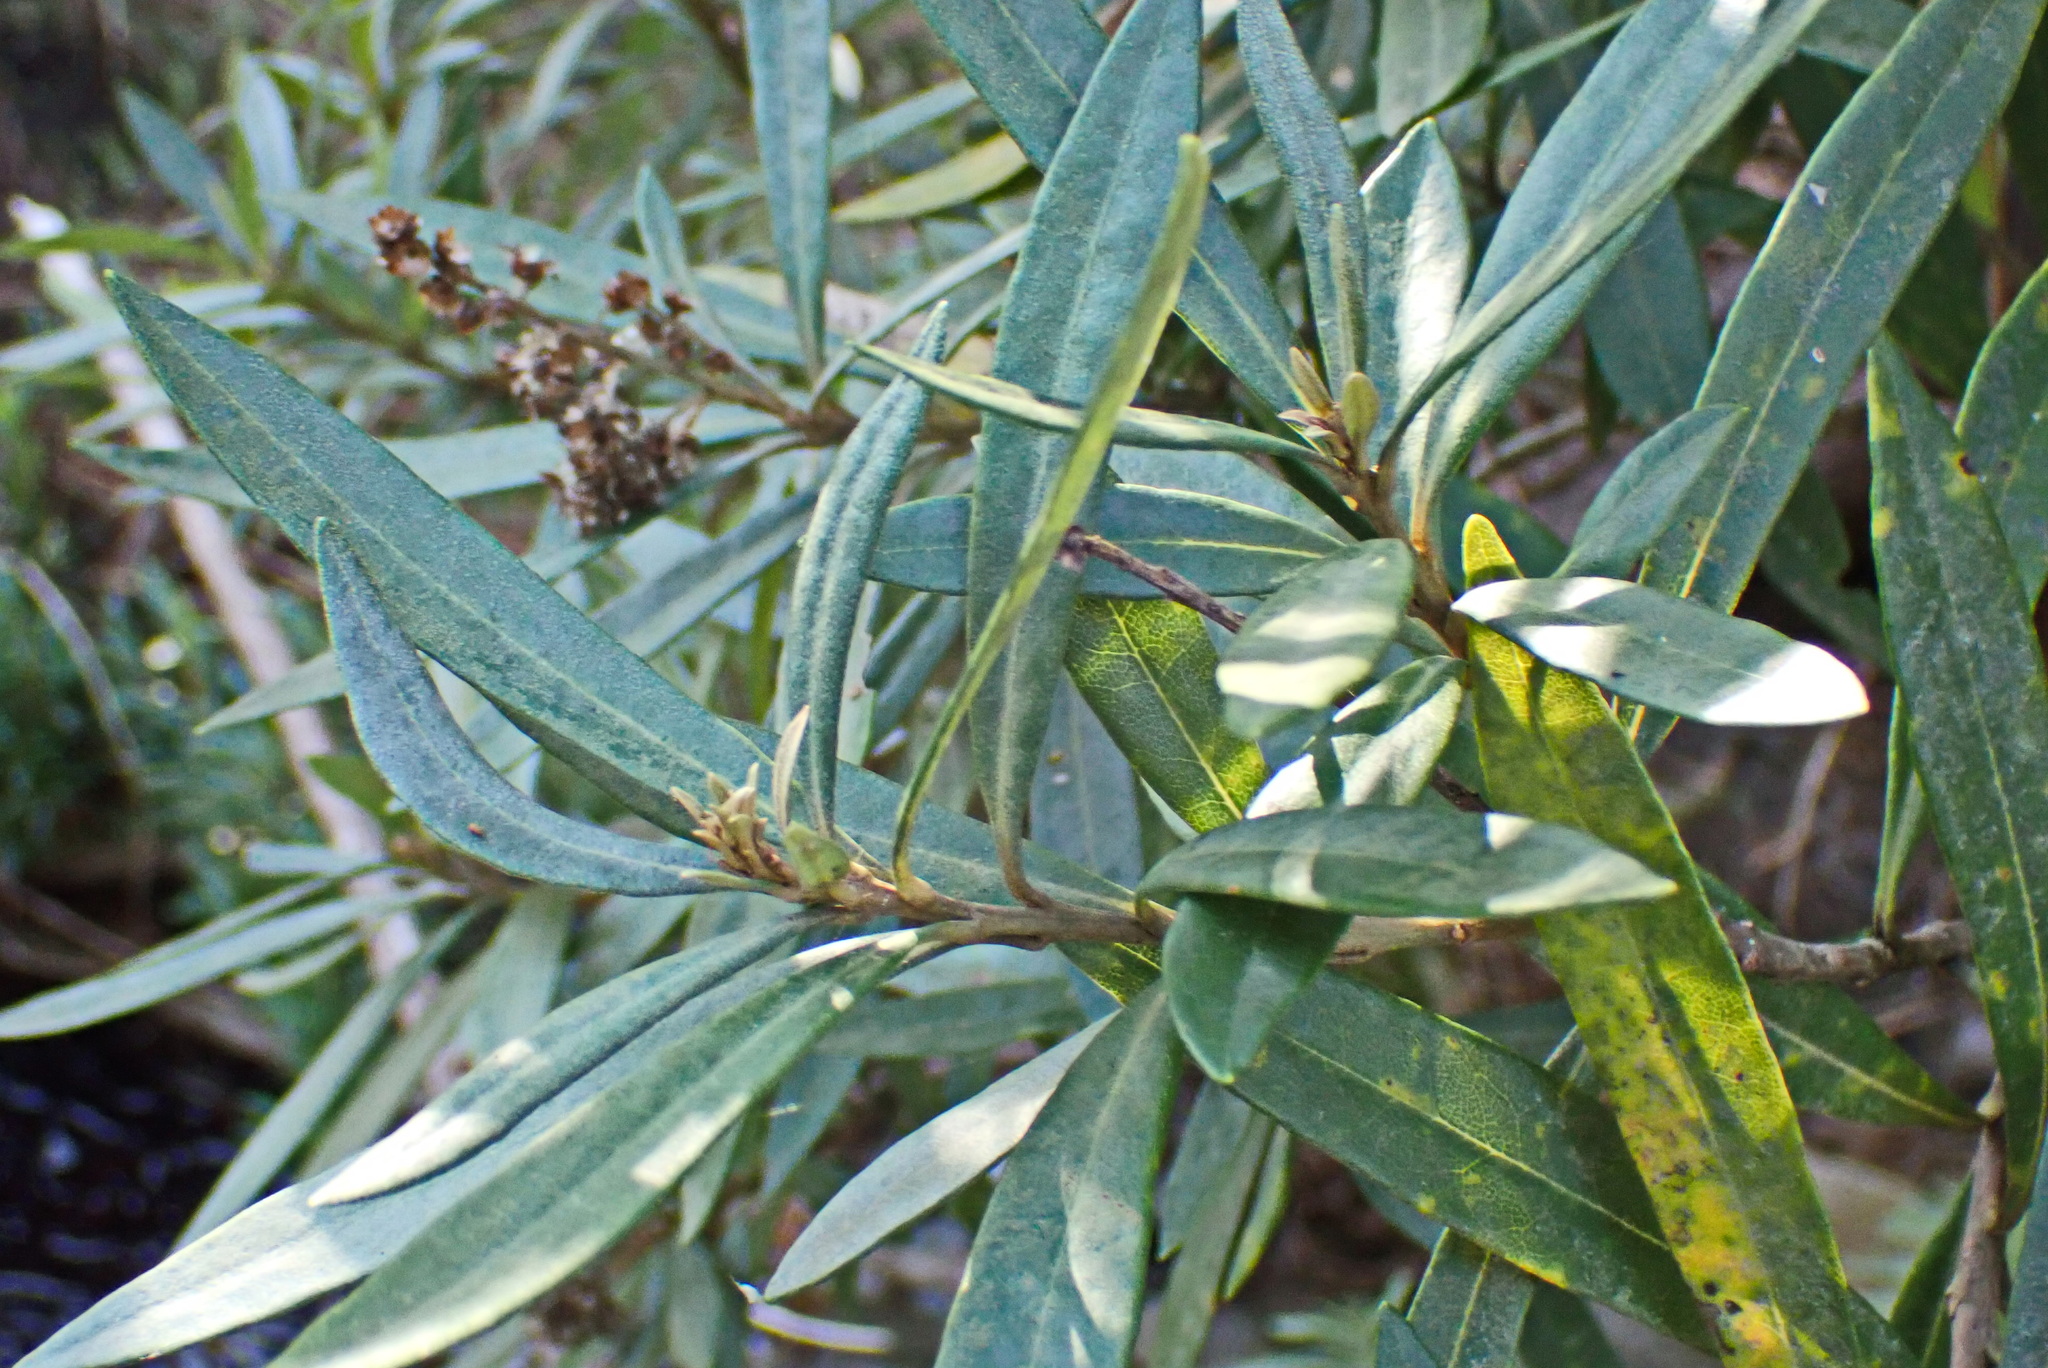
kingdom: Plantae
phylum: Tracheophyta
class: Magnoliopsida
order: Asterales
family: Asteraceae
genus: Brachylaena
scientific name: Brachylaena neriifolia
